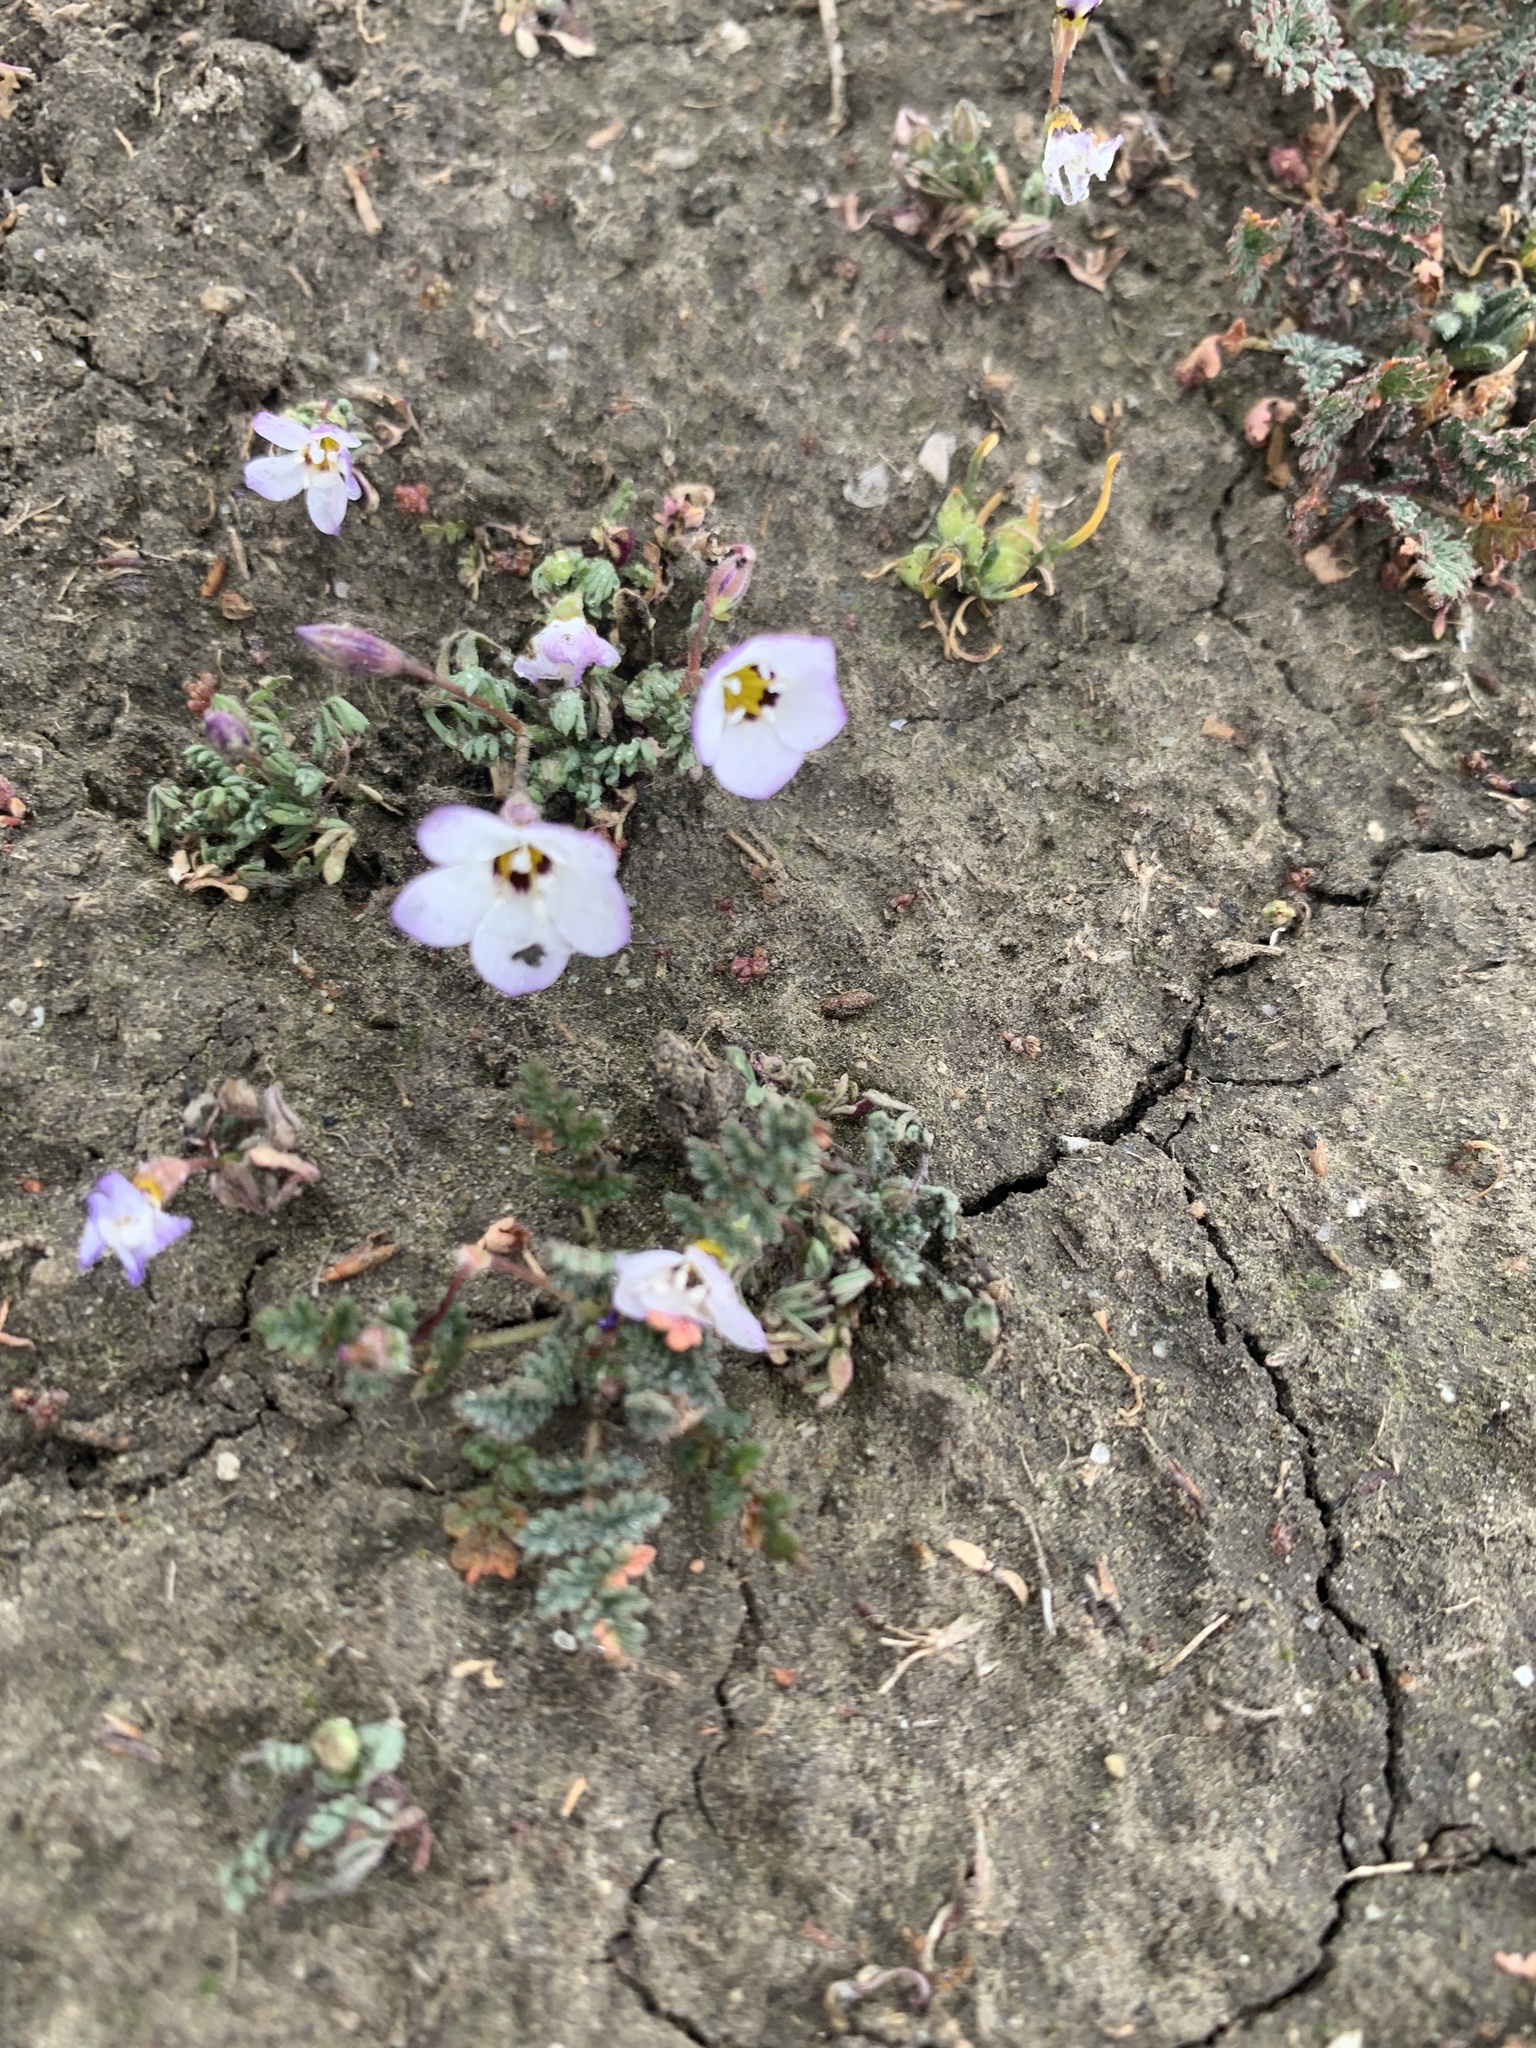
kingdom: Plantae
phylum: Tracheophyta
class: Magnoliopsida
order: Ericales
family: Polemoniaceae
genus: Gilia
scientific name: Gilia tricolor
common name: Bird's-eyes
